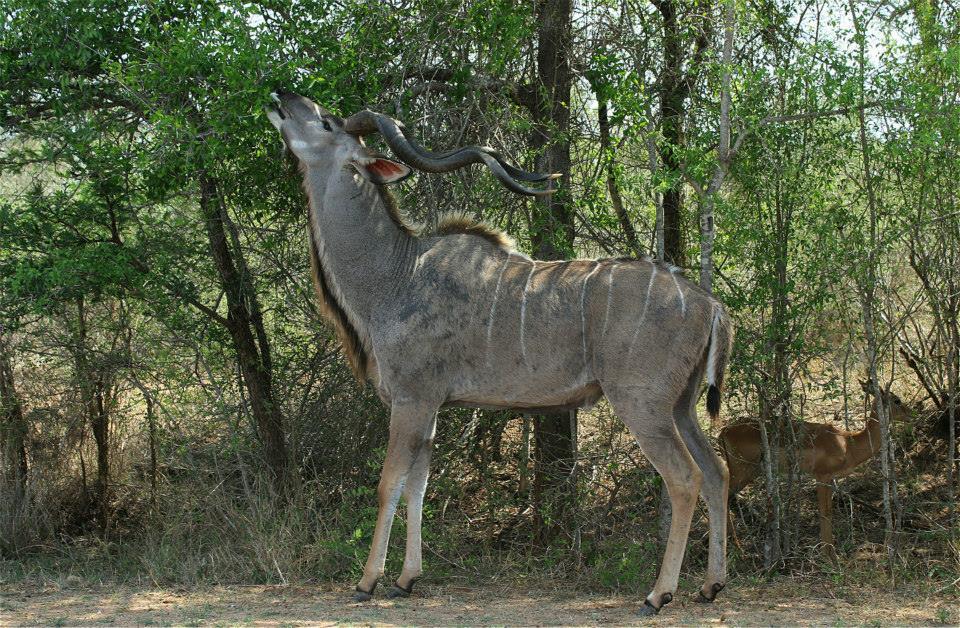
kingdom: Animalia
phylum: Chordata
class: Mammalia
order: Artiodactyla
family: Bovidae
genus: Tragelaphus
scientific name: Tragelaphus strepsiceros
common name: Greater kudu
